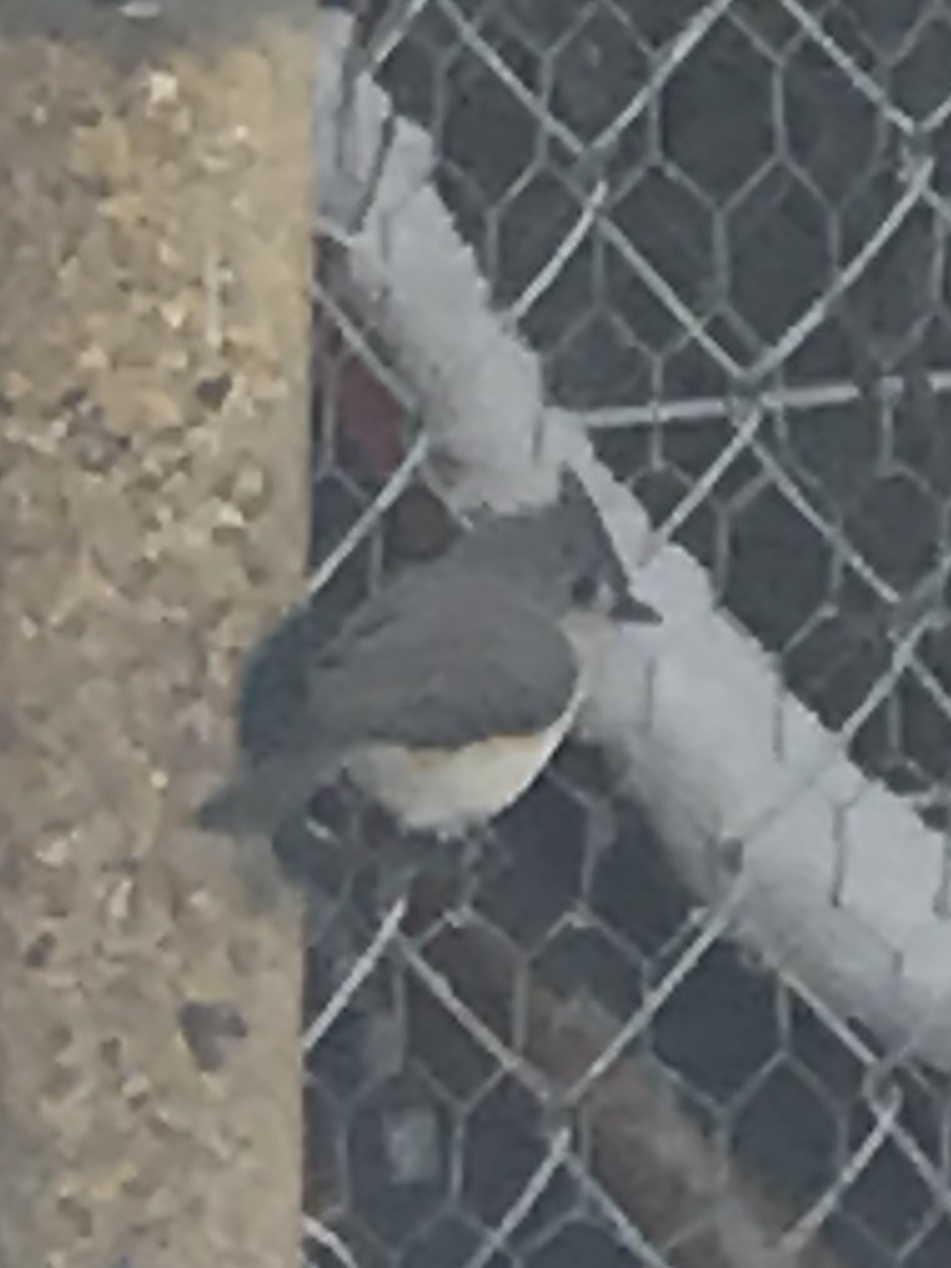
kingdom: Animalia
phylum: Chordata
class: Aves
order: Passeriformes
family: Paridae
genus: Baeolophus
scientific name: Baeolophus bicolor
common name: Tufted titmouse
